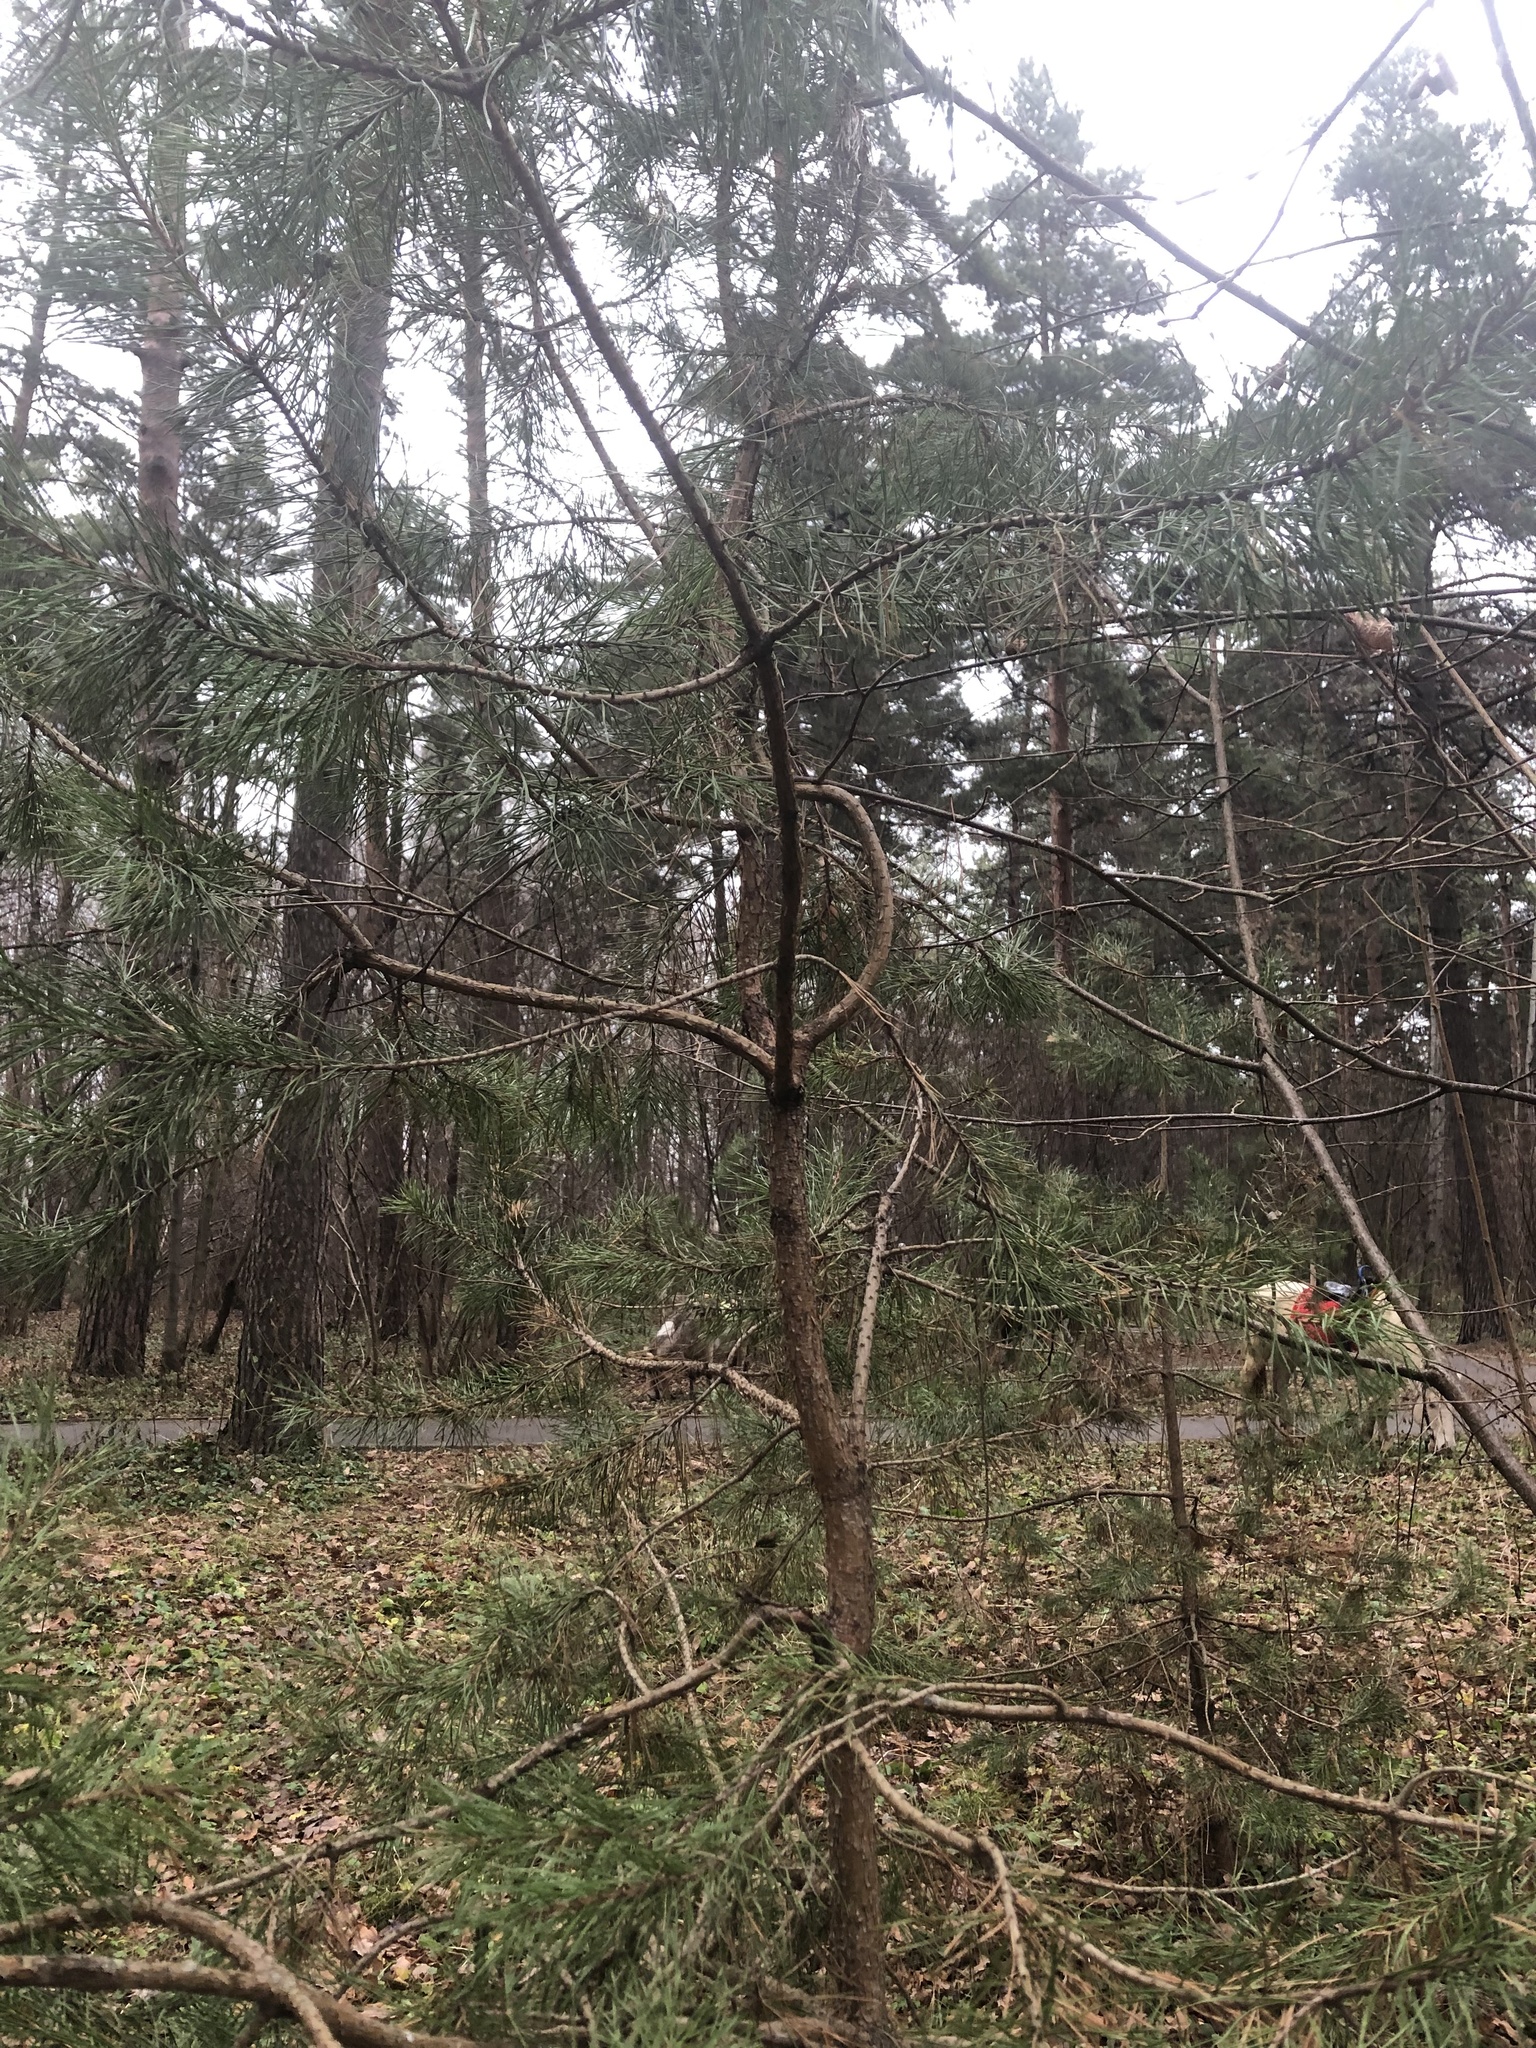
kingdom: Plantae
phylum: Tracheophyta
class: Pinopsida
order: Pinales
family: Pinaceae
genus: Pinus
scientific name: Pinus sylvestris
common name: Scots pine
